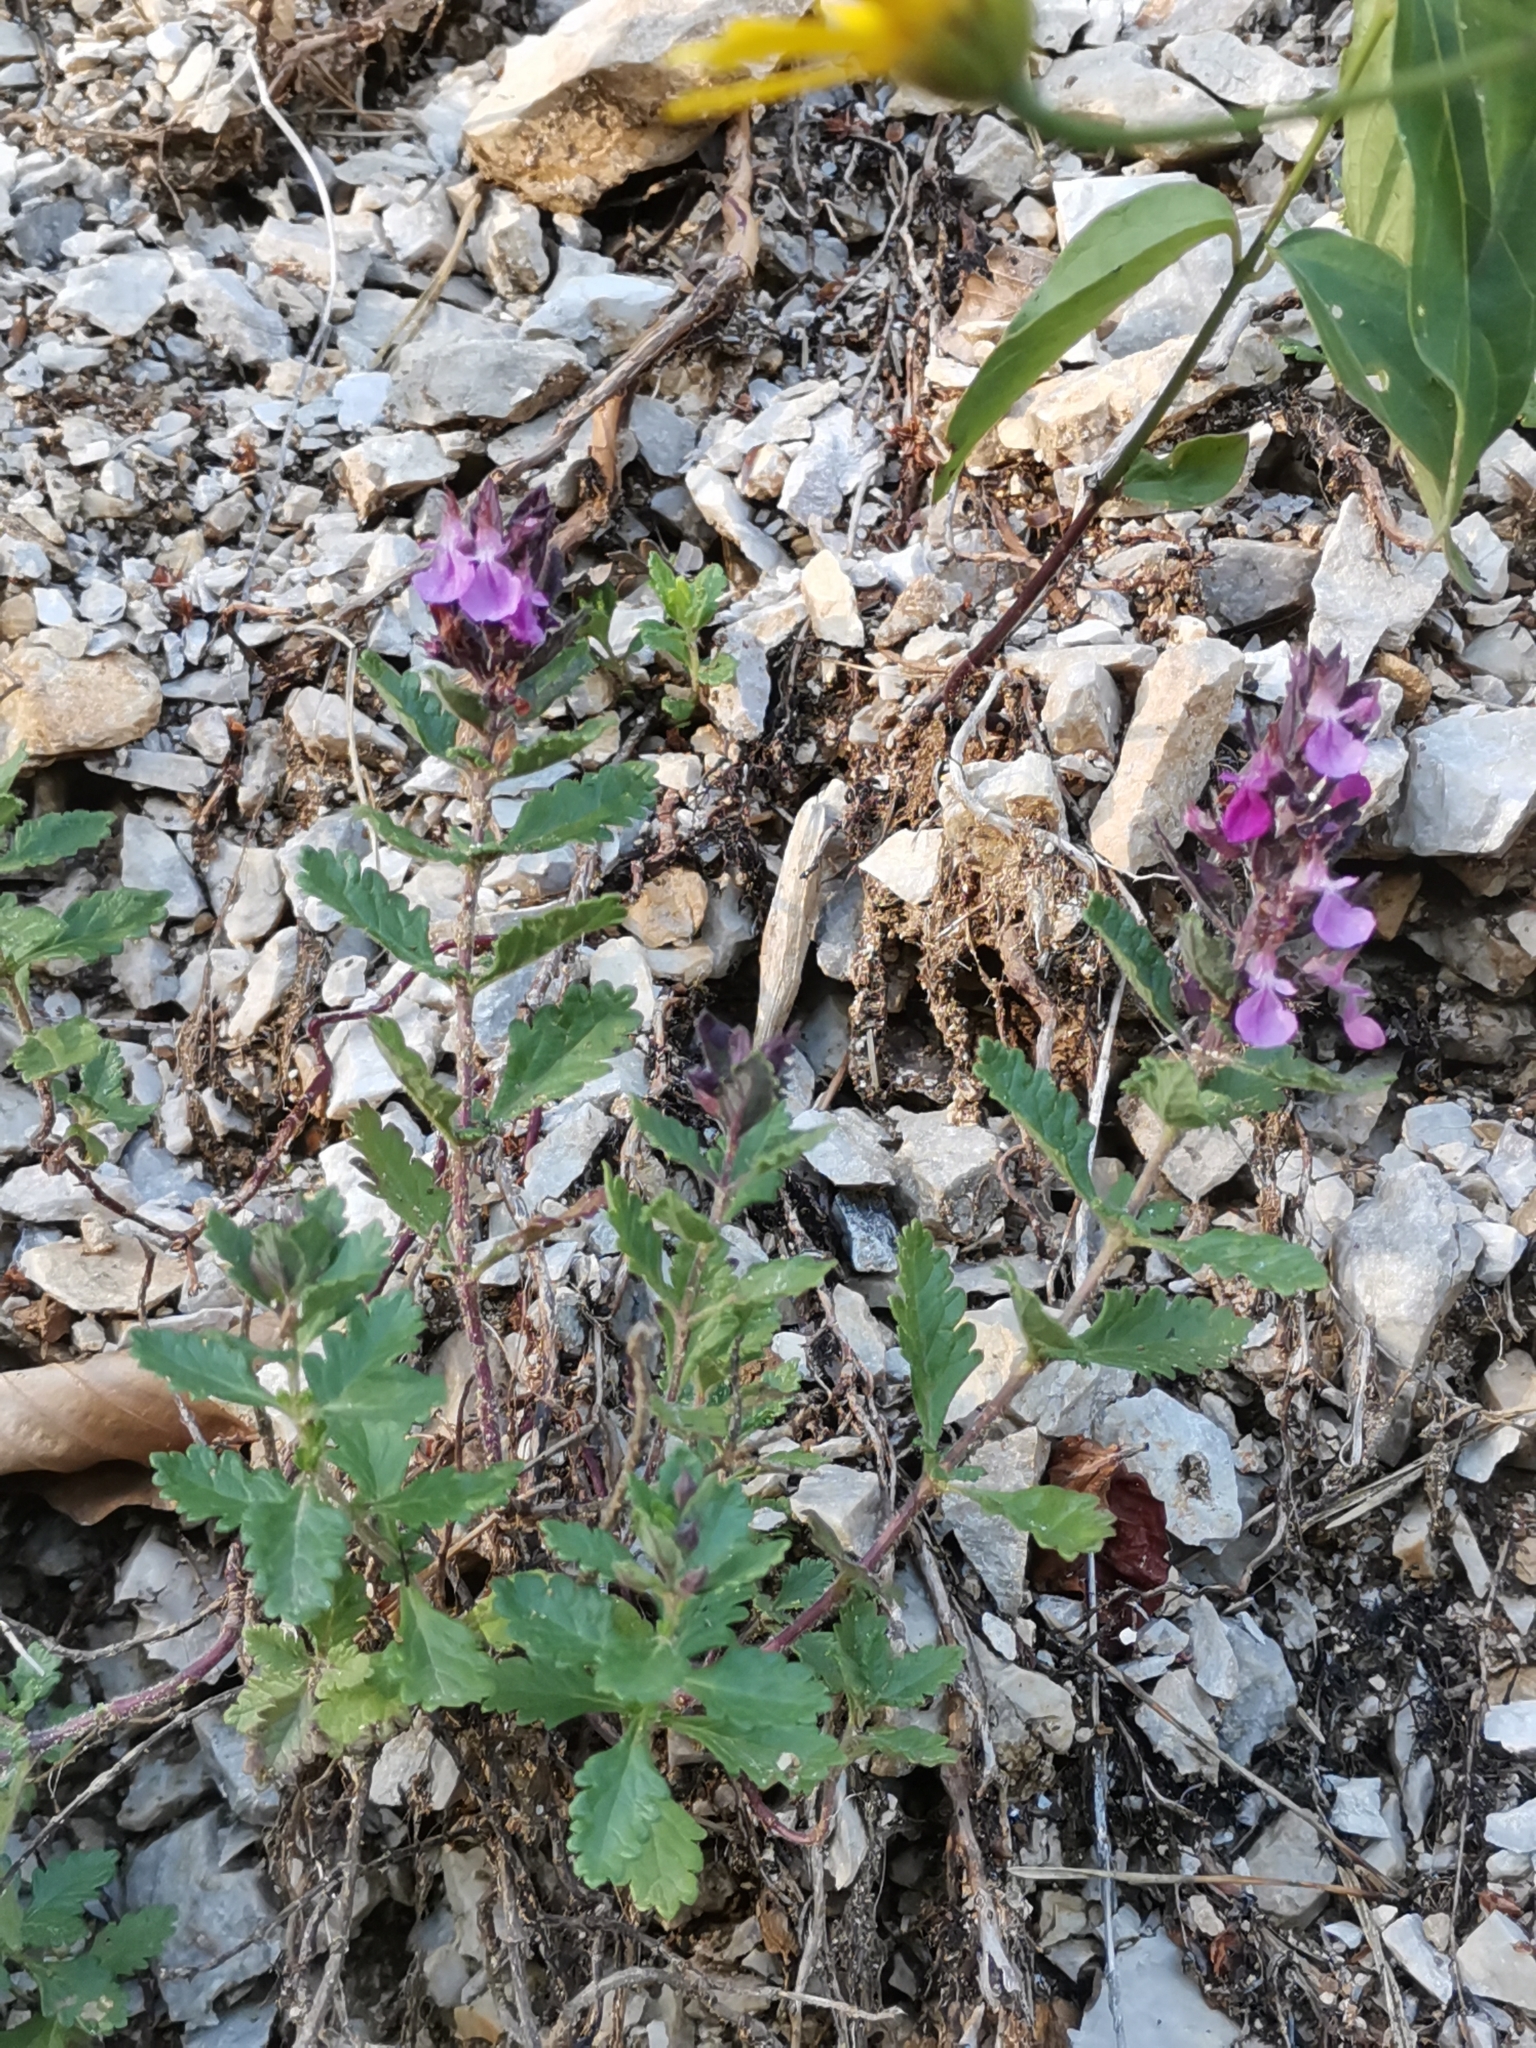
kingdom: Plantae
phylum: Tracheophyta
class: Magnoliopsida
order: Lamiales
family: Lamiaceae
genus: Teucrium
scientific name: Teucrium chamaedrys
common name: Wall germander
